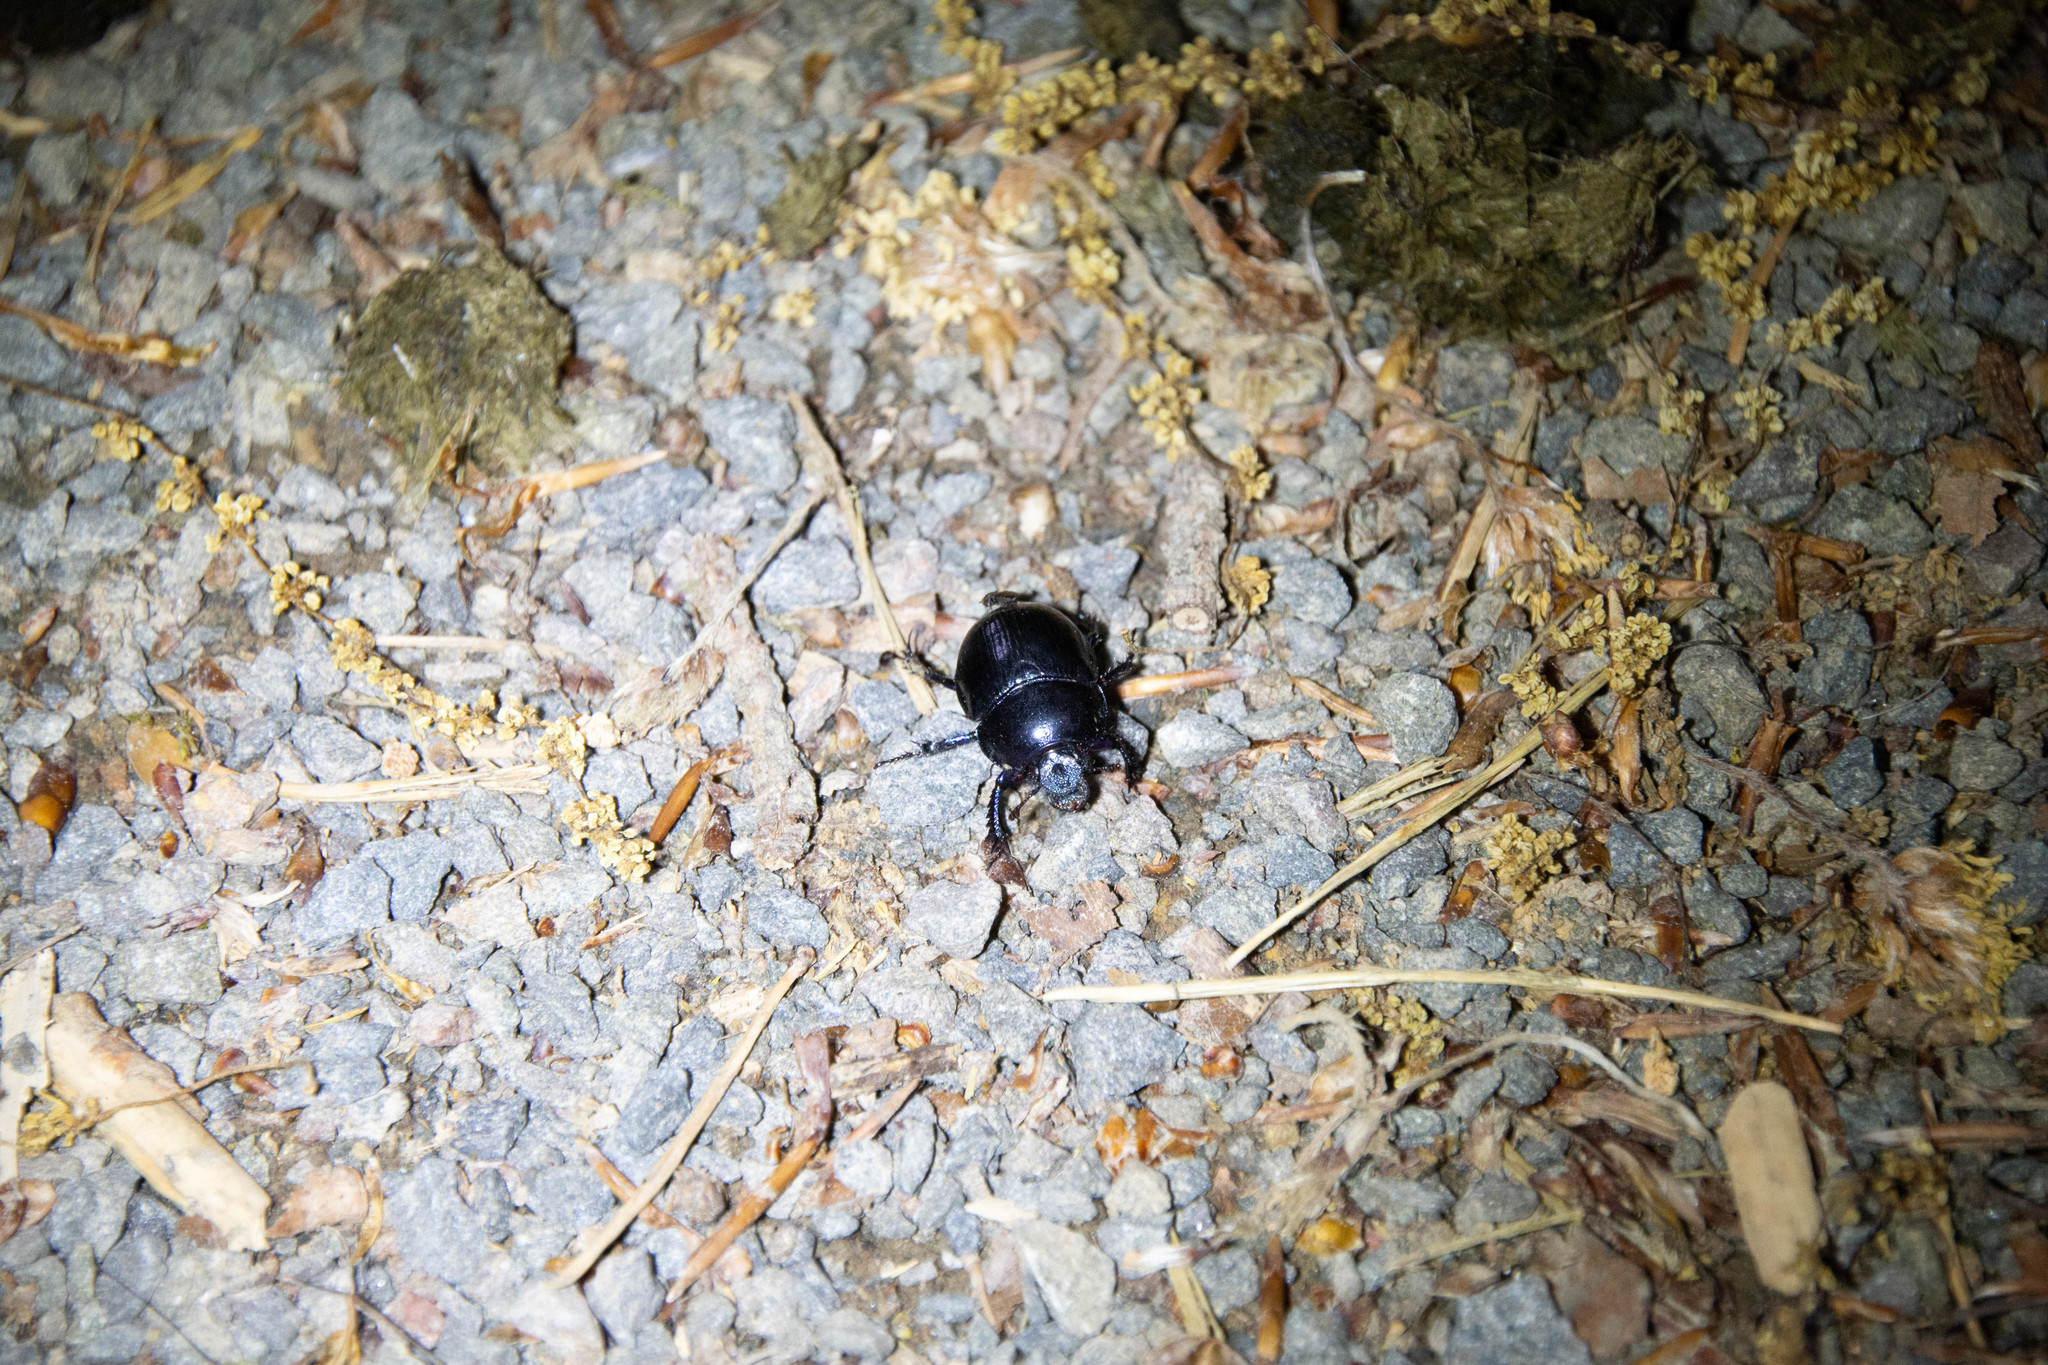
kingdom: Animalia
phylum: Arthropoda
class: Insecta
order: Coleoptera
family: Geotrupidae
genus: Anoplotrupes
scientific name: Anoplotrupes stercorosus
